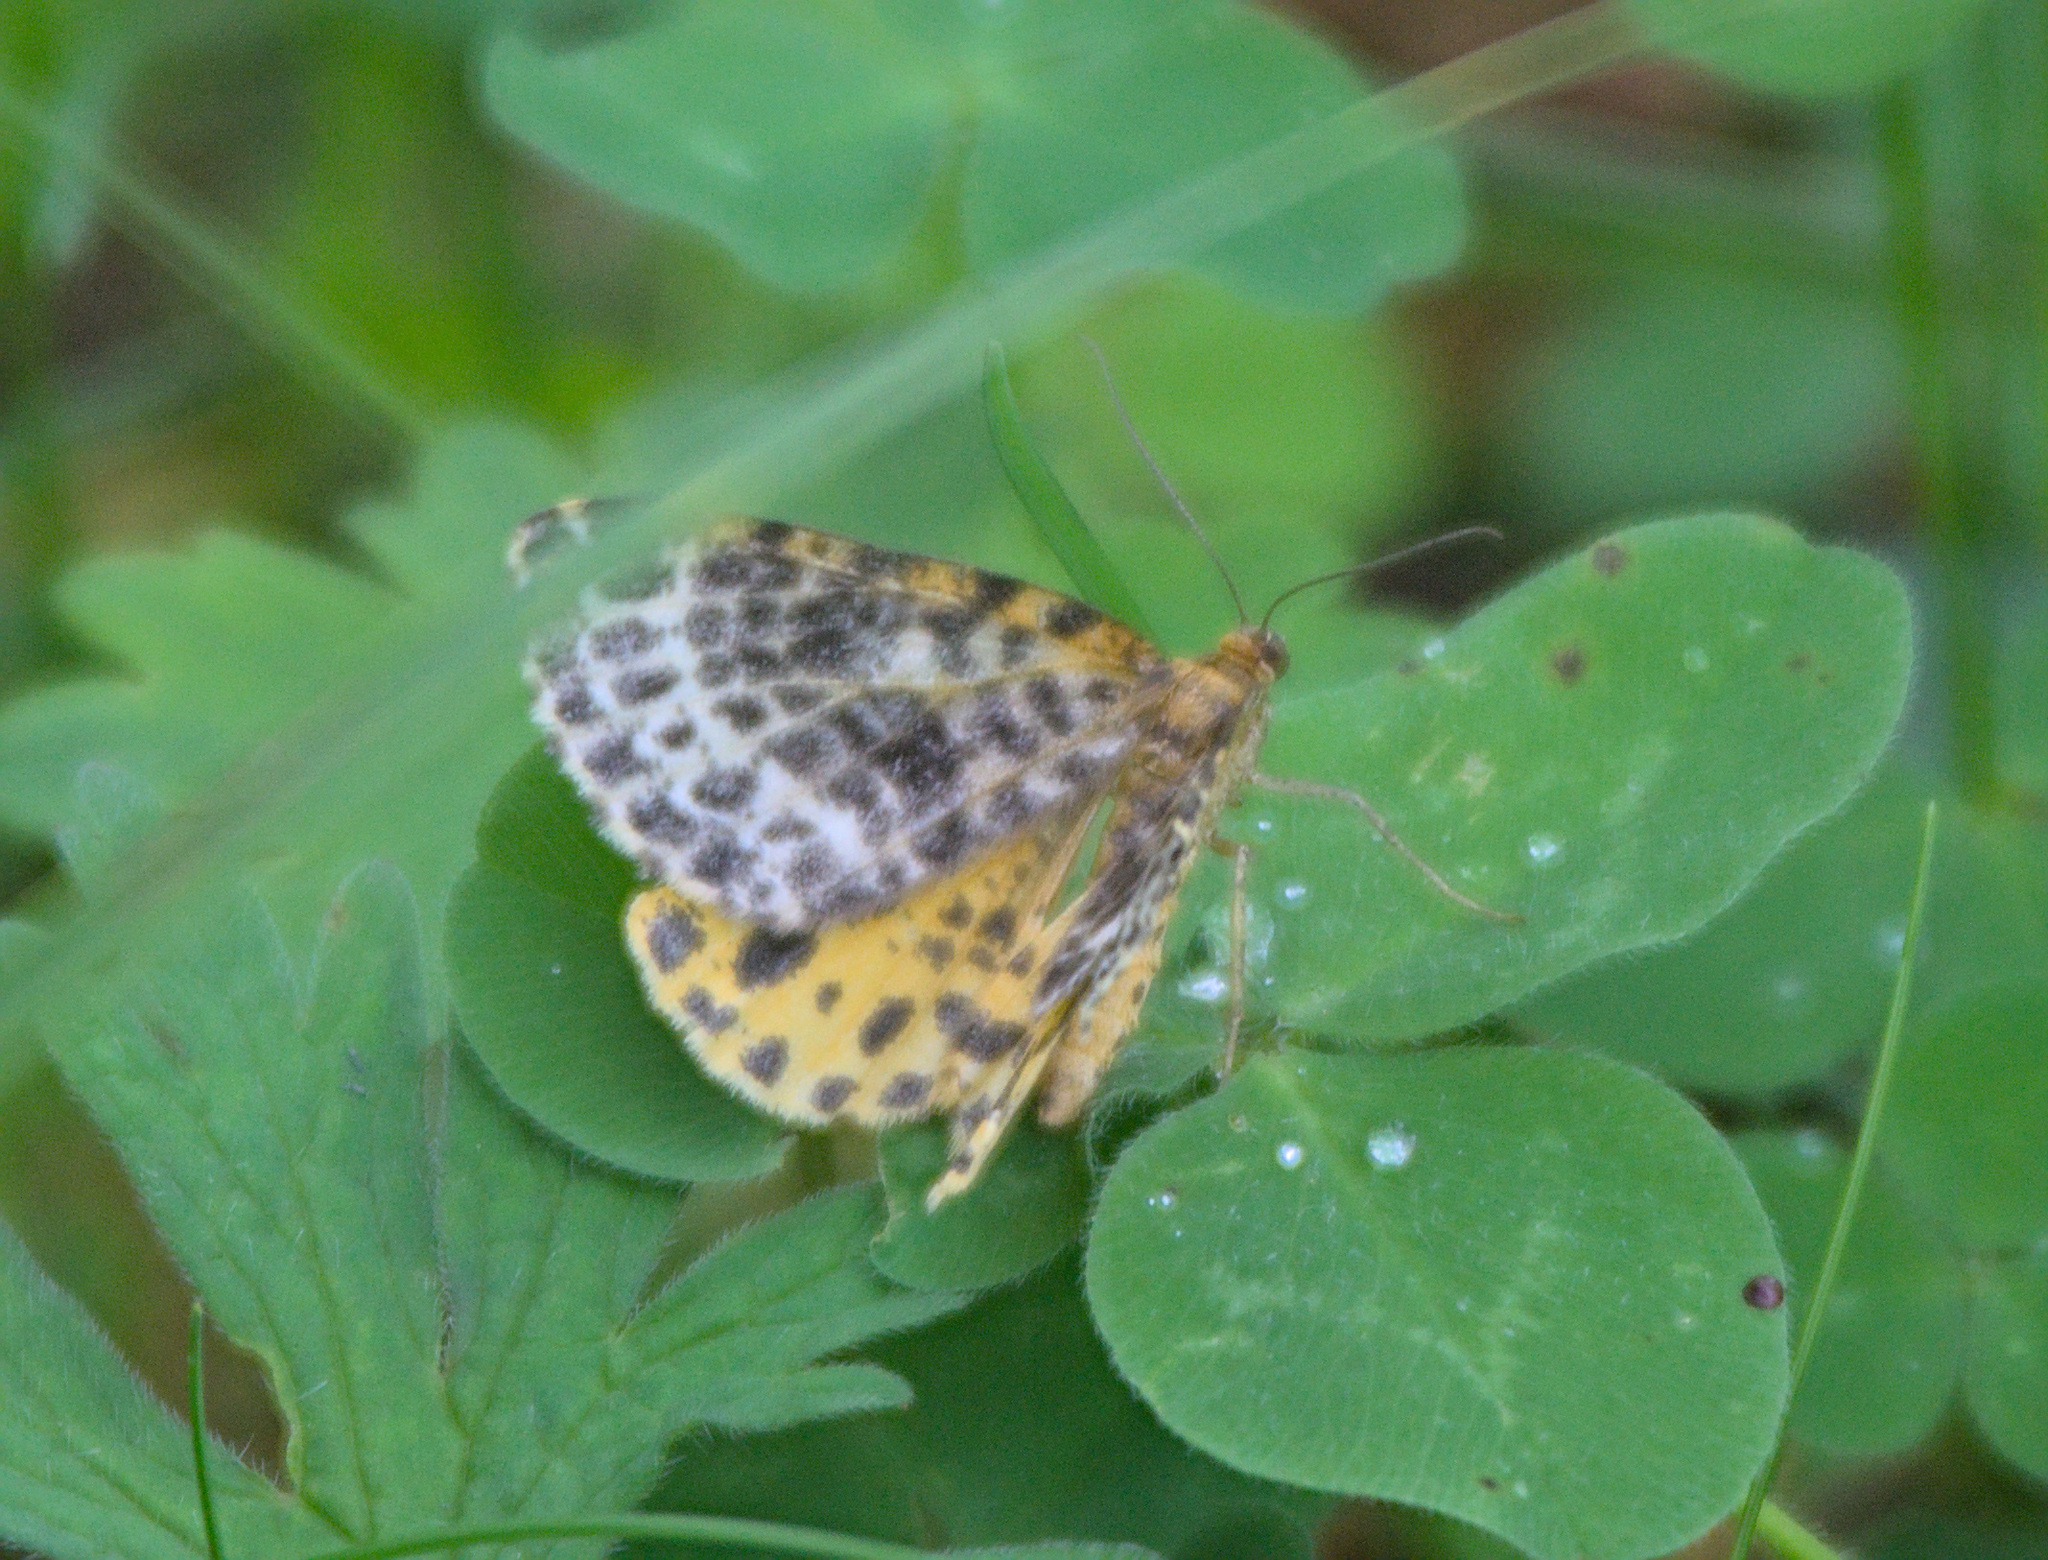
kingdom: Animalia
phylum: Arthropoda
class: Insecta
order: Lepidoptera
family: Geometridae
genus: Arichanna
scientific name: Arichanna melanaria
